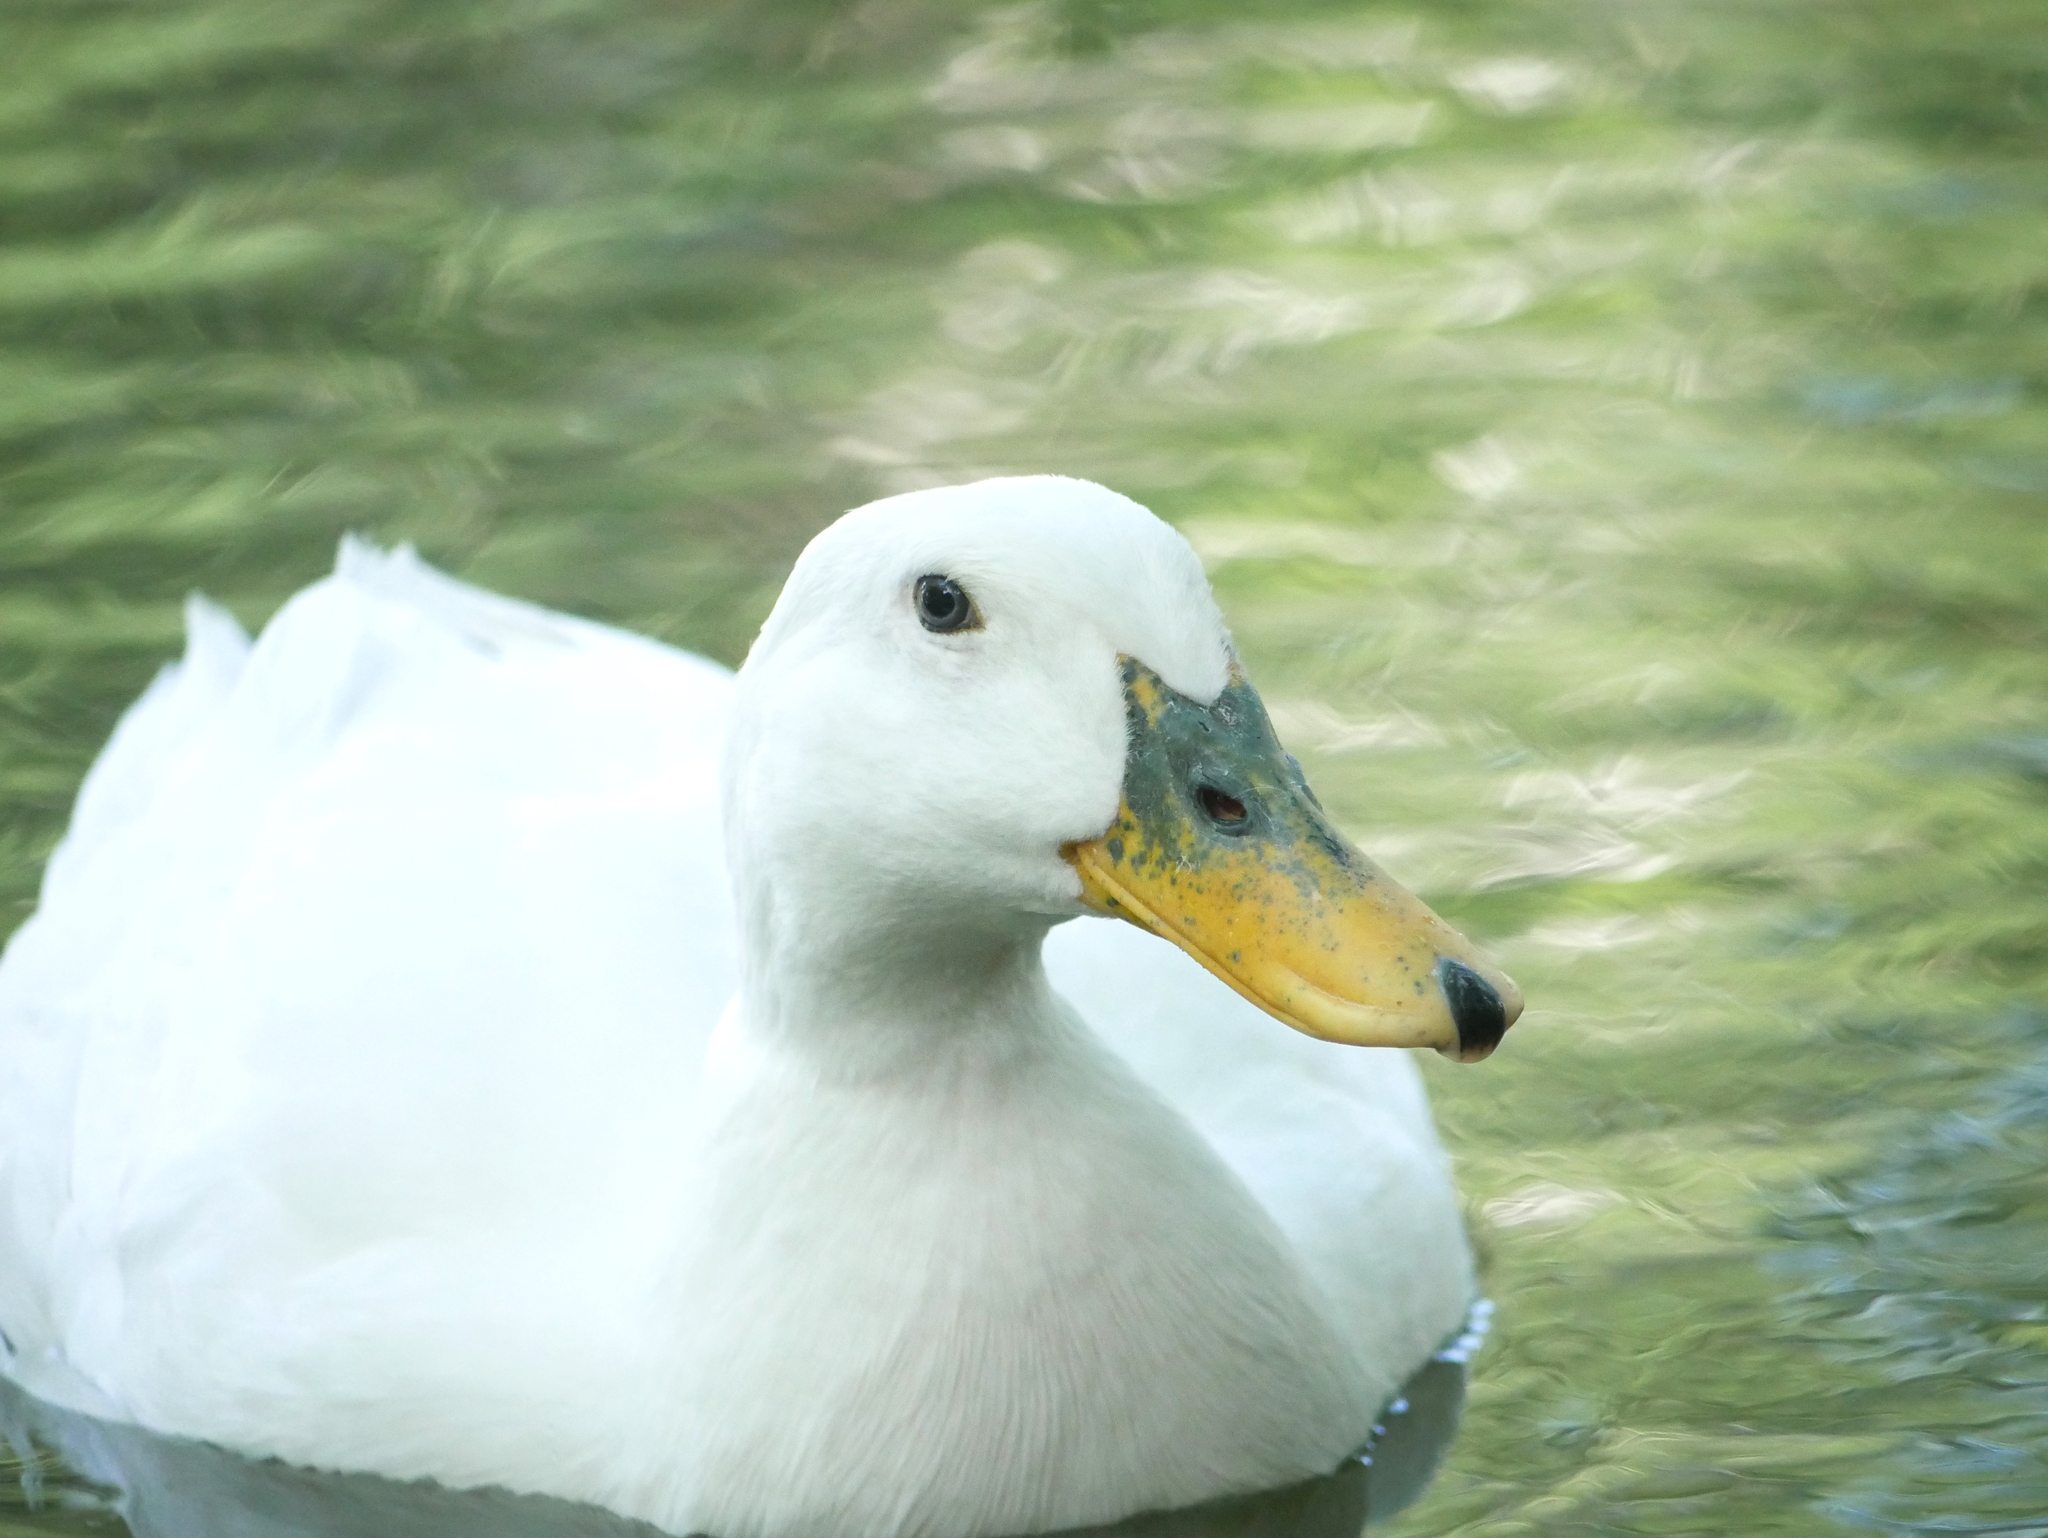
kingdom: Animalia
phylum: Chordata
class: Aves
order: Anseriformes
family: Anatidae
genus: Anas
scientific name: Anas platyrhynchos
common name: Mallard
